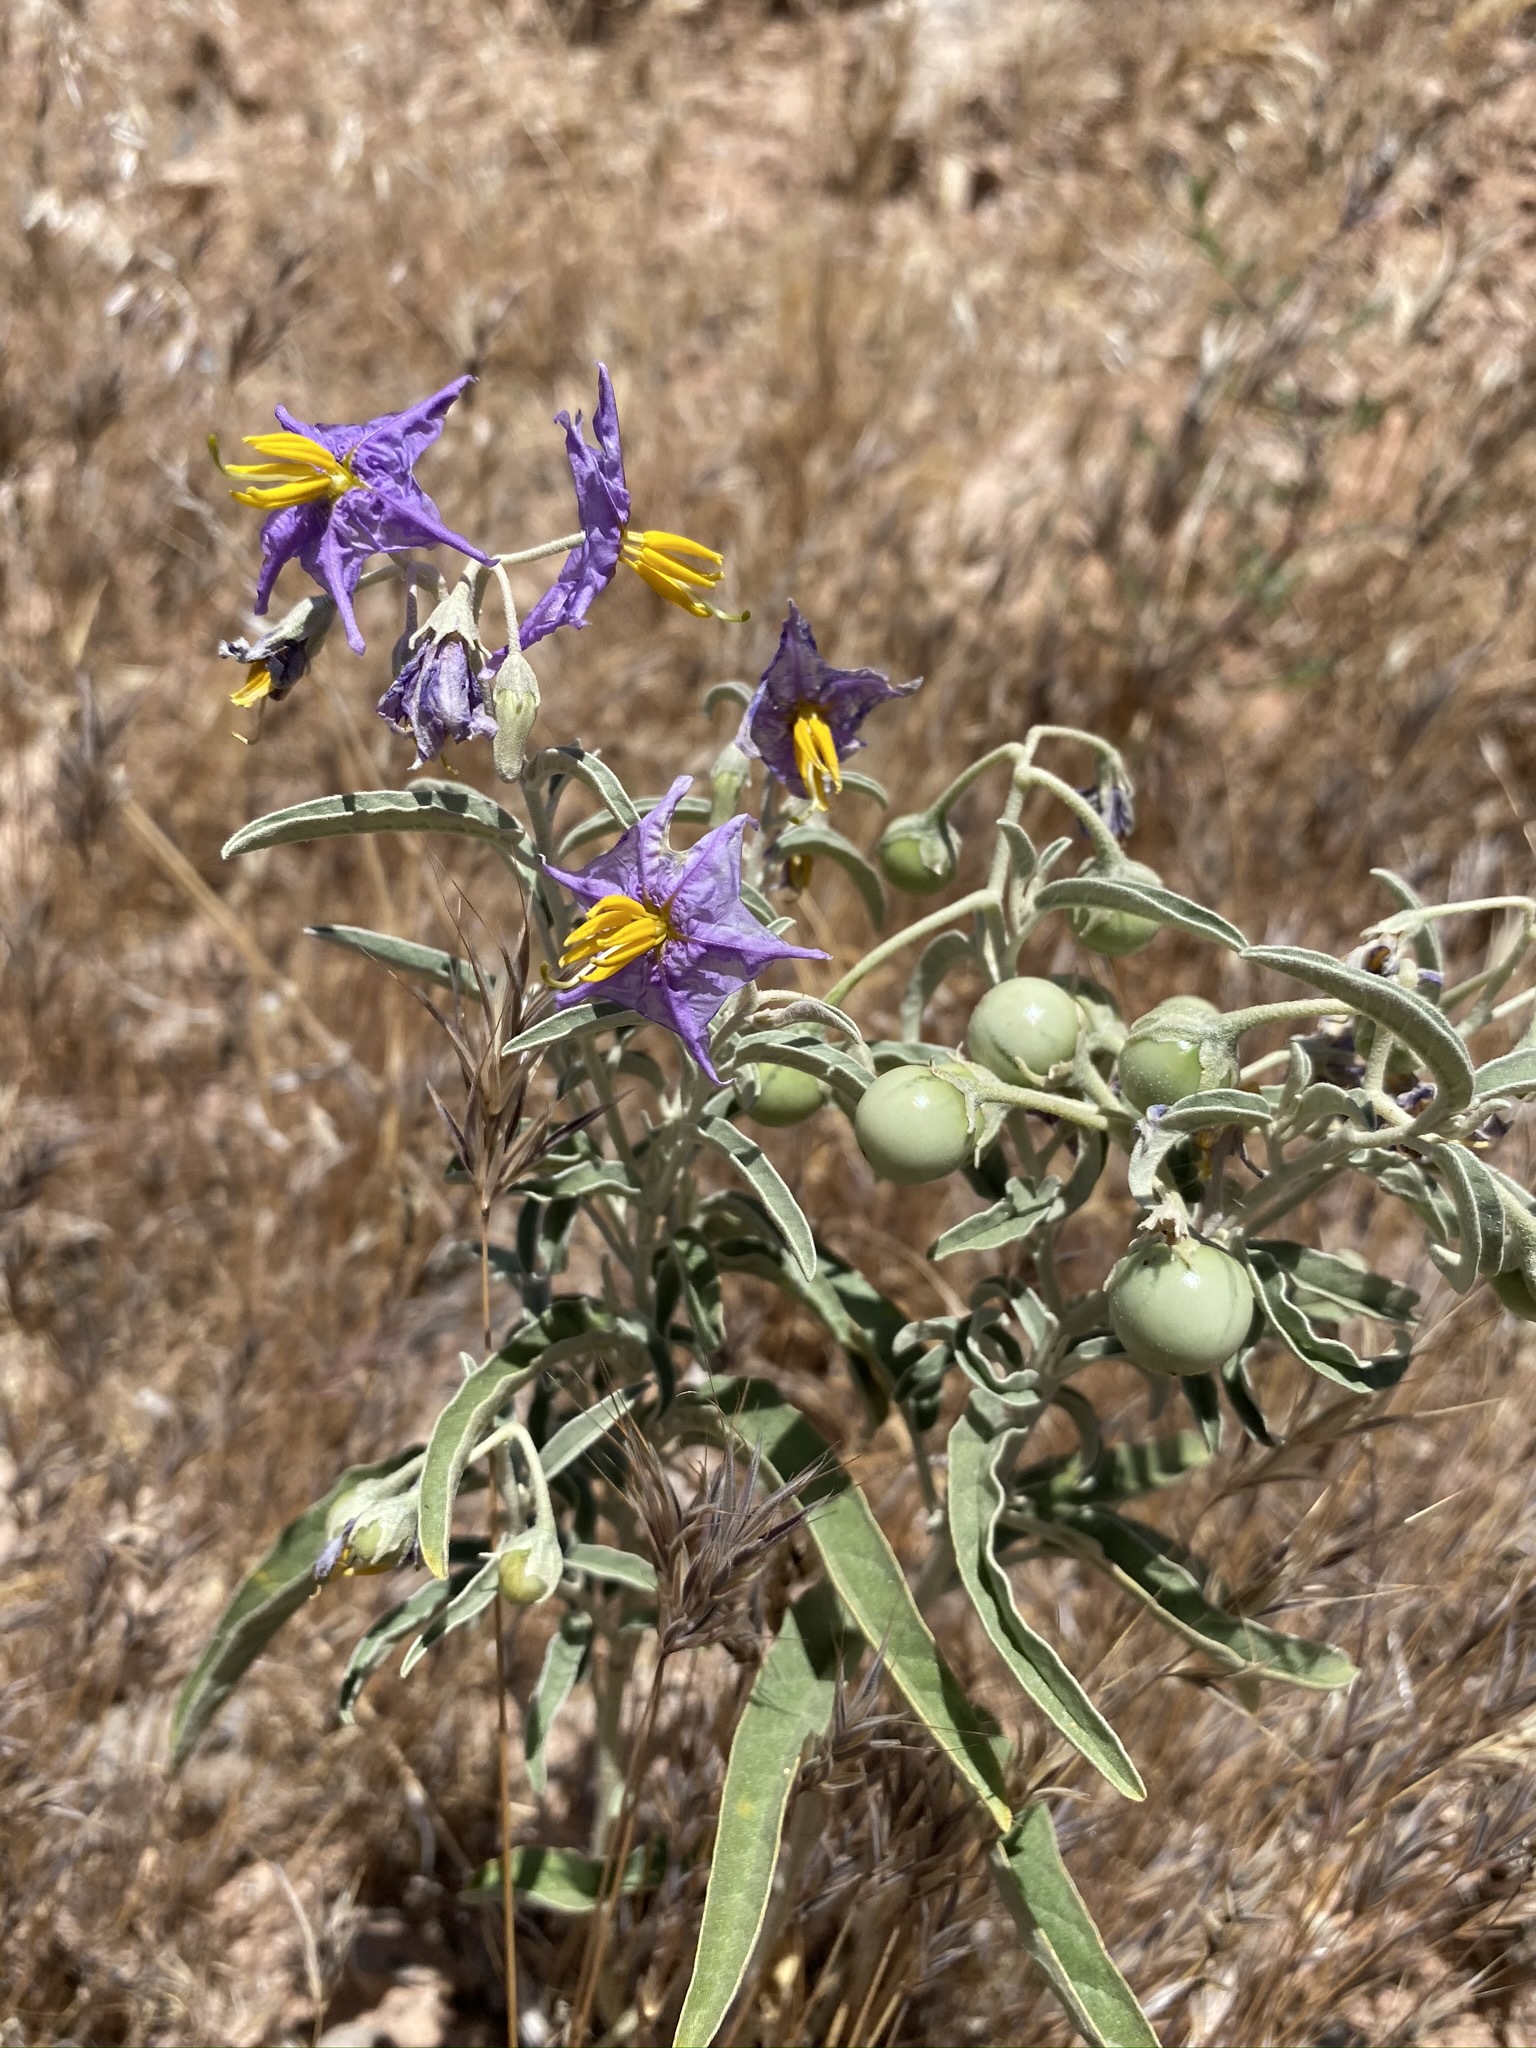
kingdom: Plantae
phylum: Tracheophyta
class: Magnoliopsida
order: Solanales
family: Solanaceae
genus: Solanum
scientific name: Solanum elaeagnifolium
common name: Silverleaf nightshade
